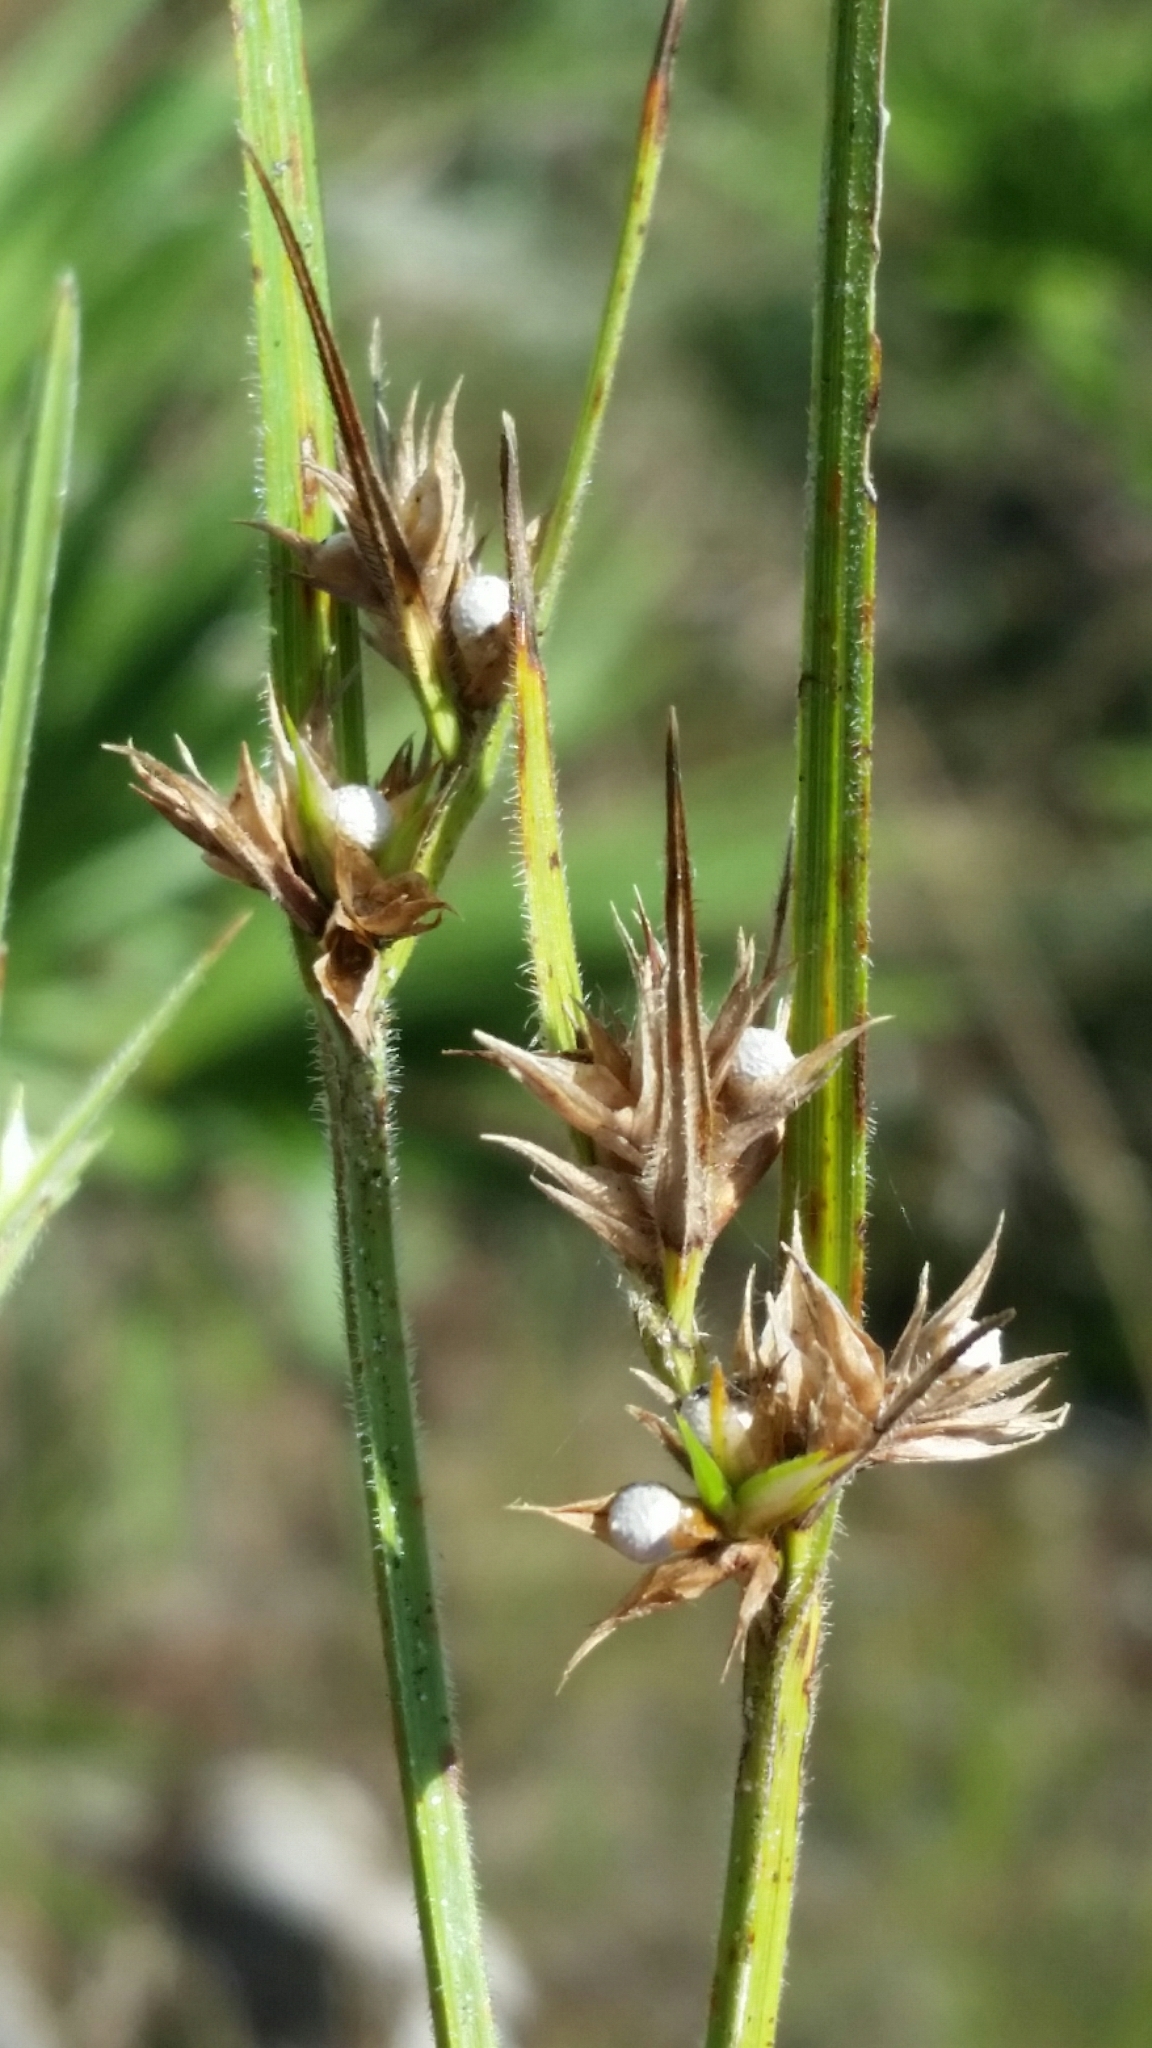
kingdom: Plantae
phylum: Tracheophyta
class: Liliopsida
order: Poales
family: Cyperaceae
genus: Scleria
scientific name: Scleria ciliata
